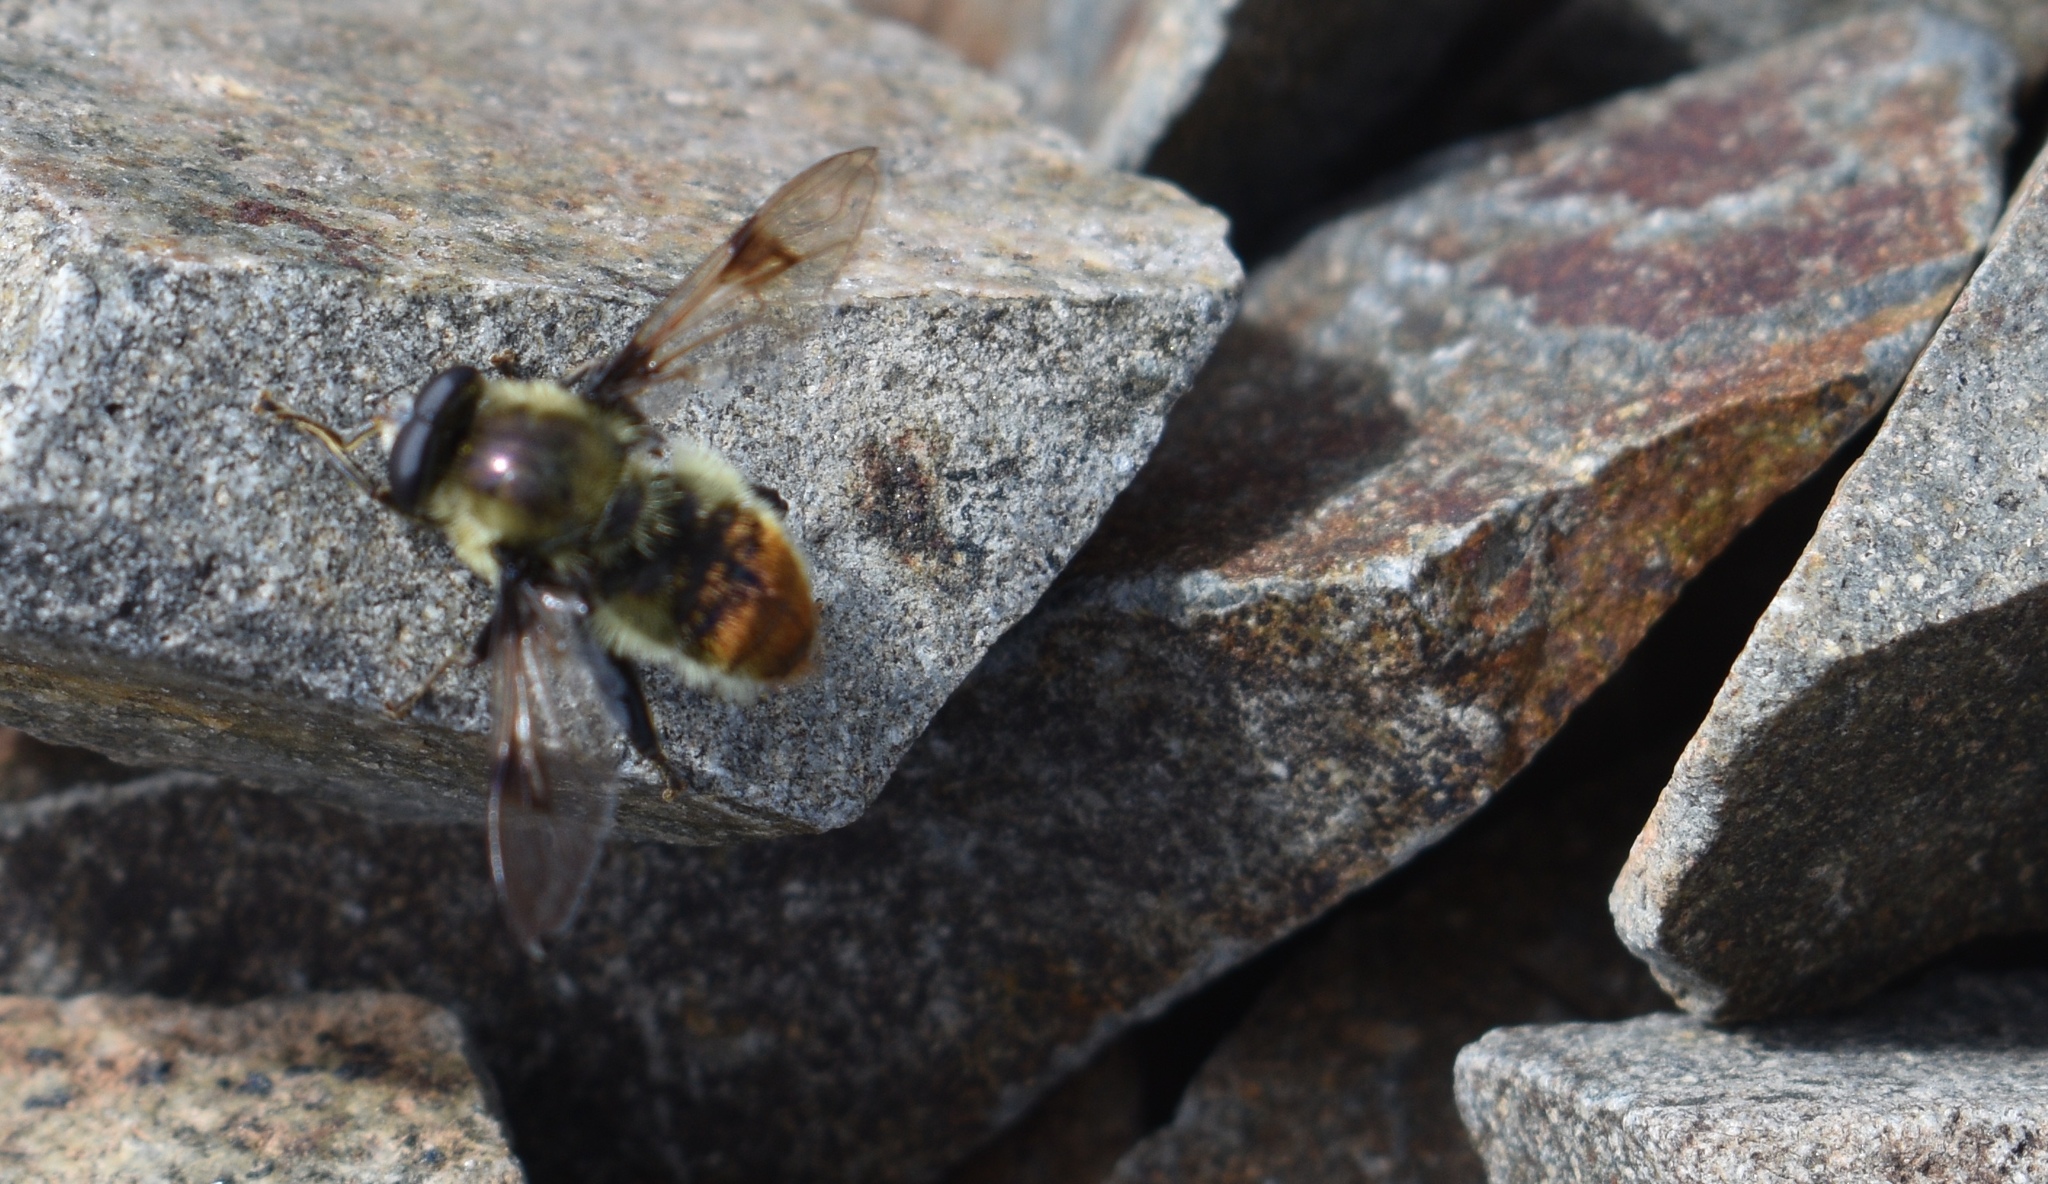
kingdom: Animalia
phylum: Arthropoda
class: Insecta
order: Diptera
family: Syrphidae
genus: Sericomyia
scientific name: Sericomyia flagrans
